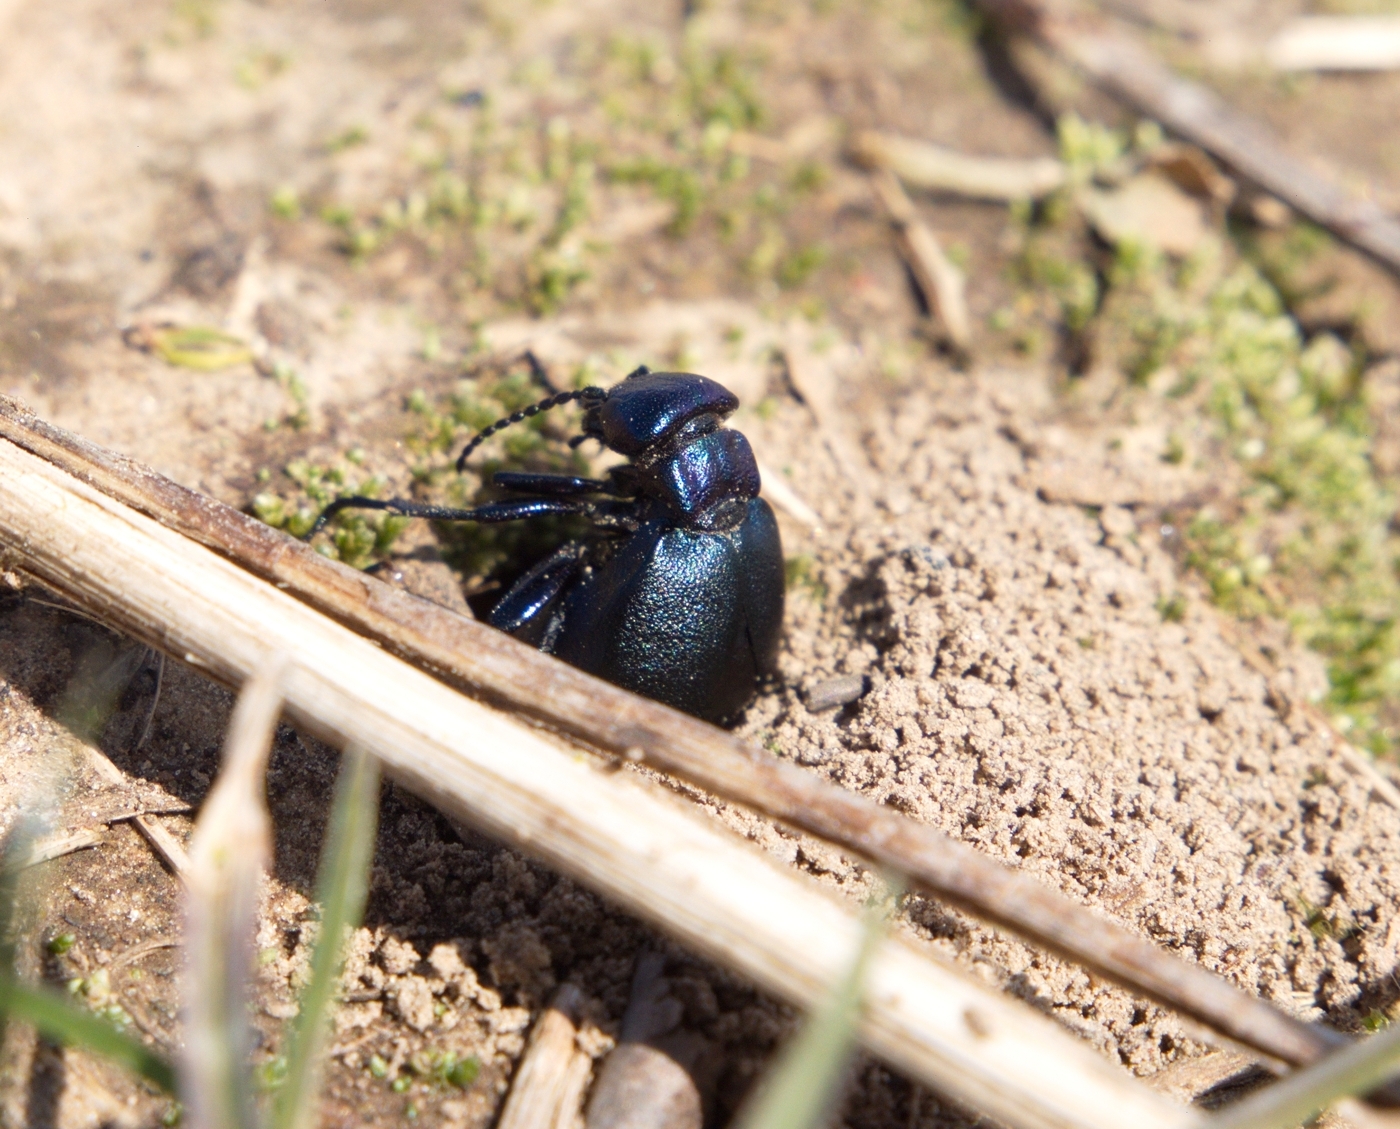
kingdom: Animalia
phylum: Arthropoda
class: Insecta
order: Coleoptera
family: Meloidae
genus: Meloe
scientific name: Meloe decorus
